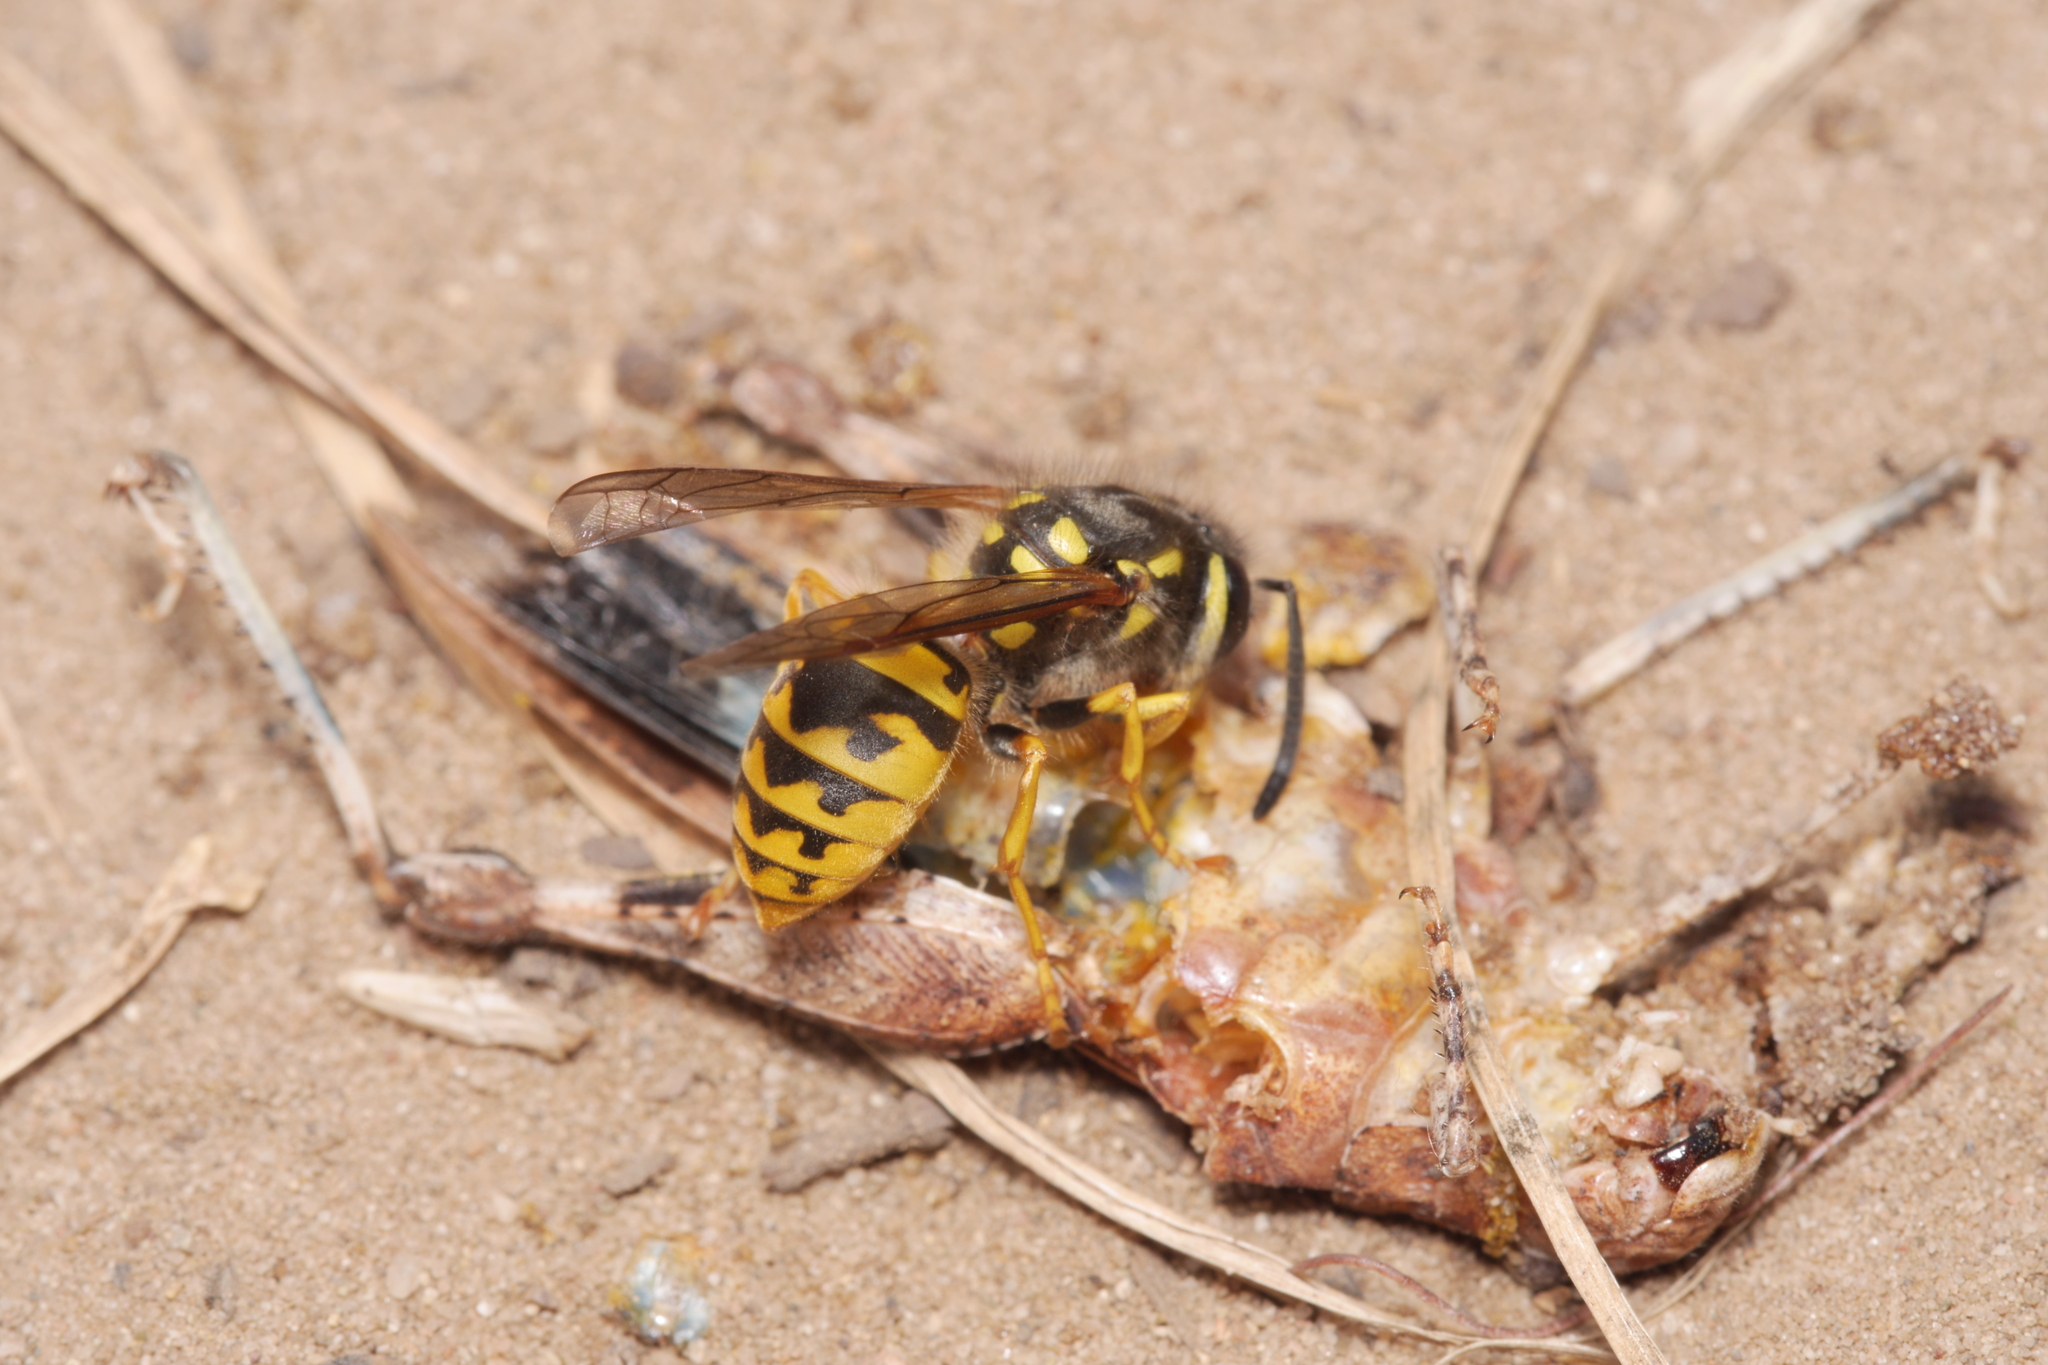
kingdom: Animalia
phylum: Arthropoda
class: Insecta
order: Hymenoptera
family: Vespidae
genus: Vespula
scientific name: Vespula germanica
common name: German wasp
